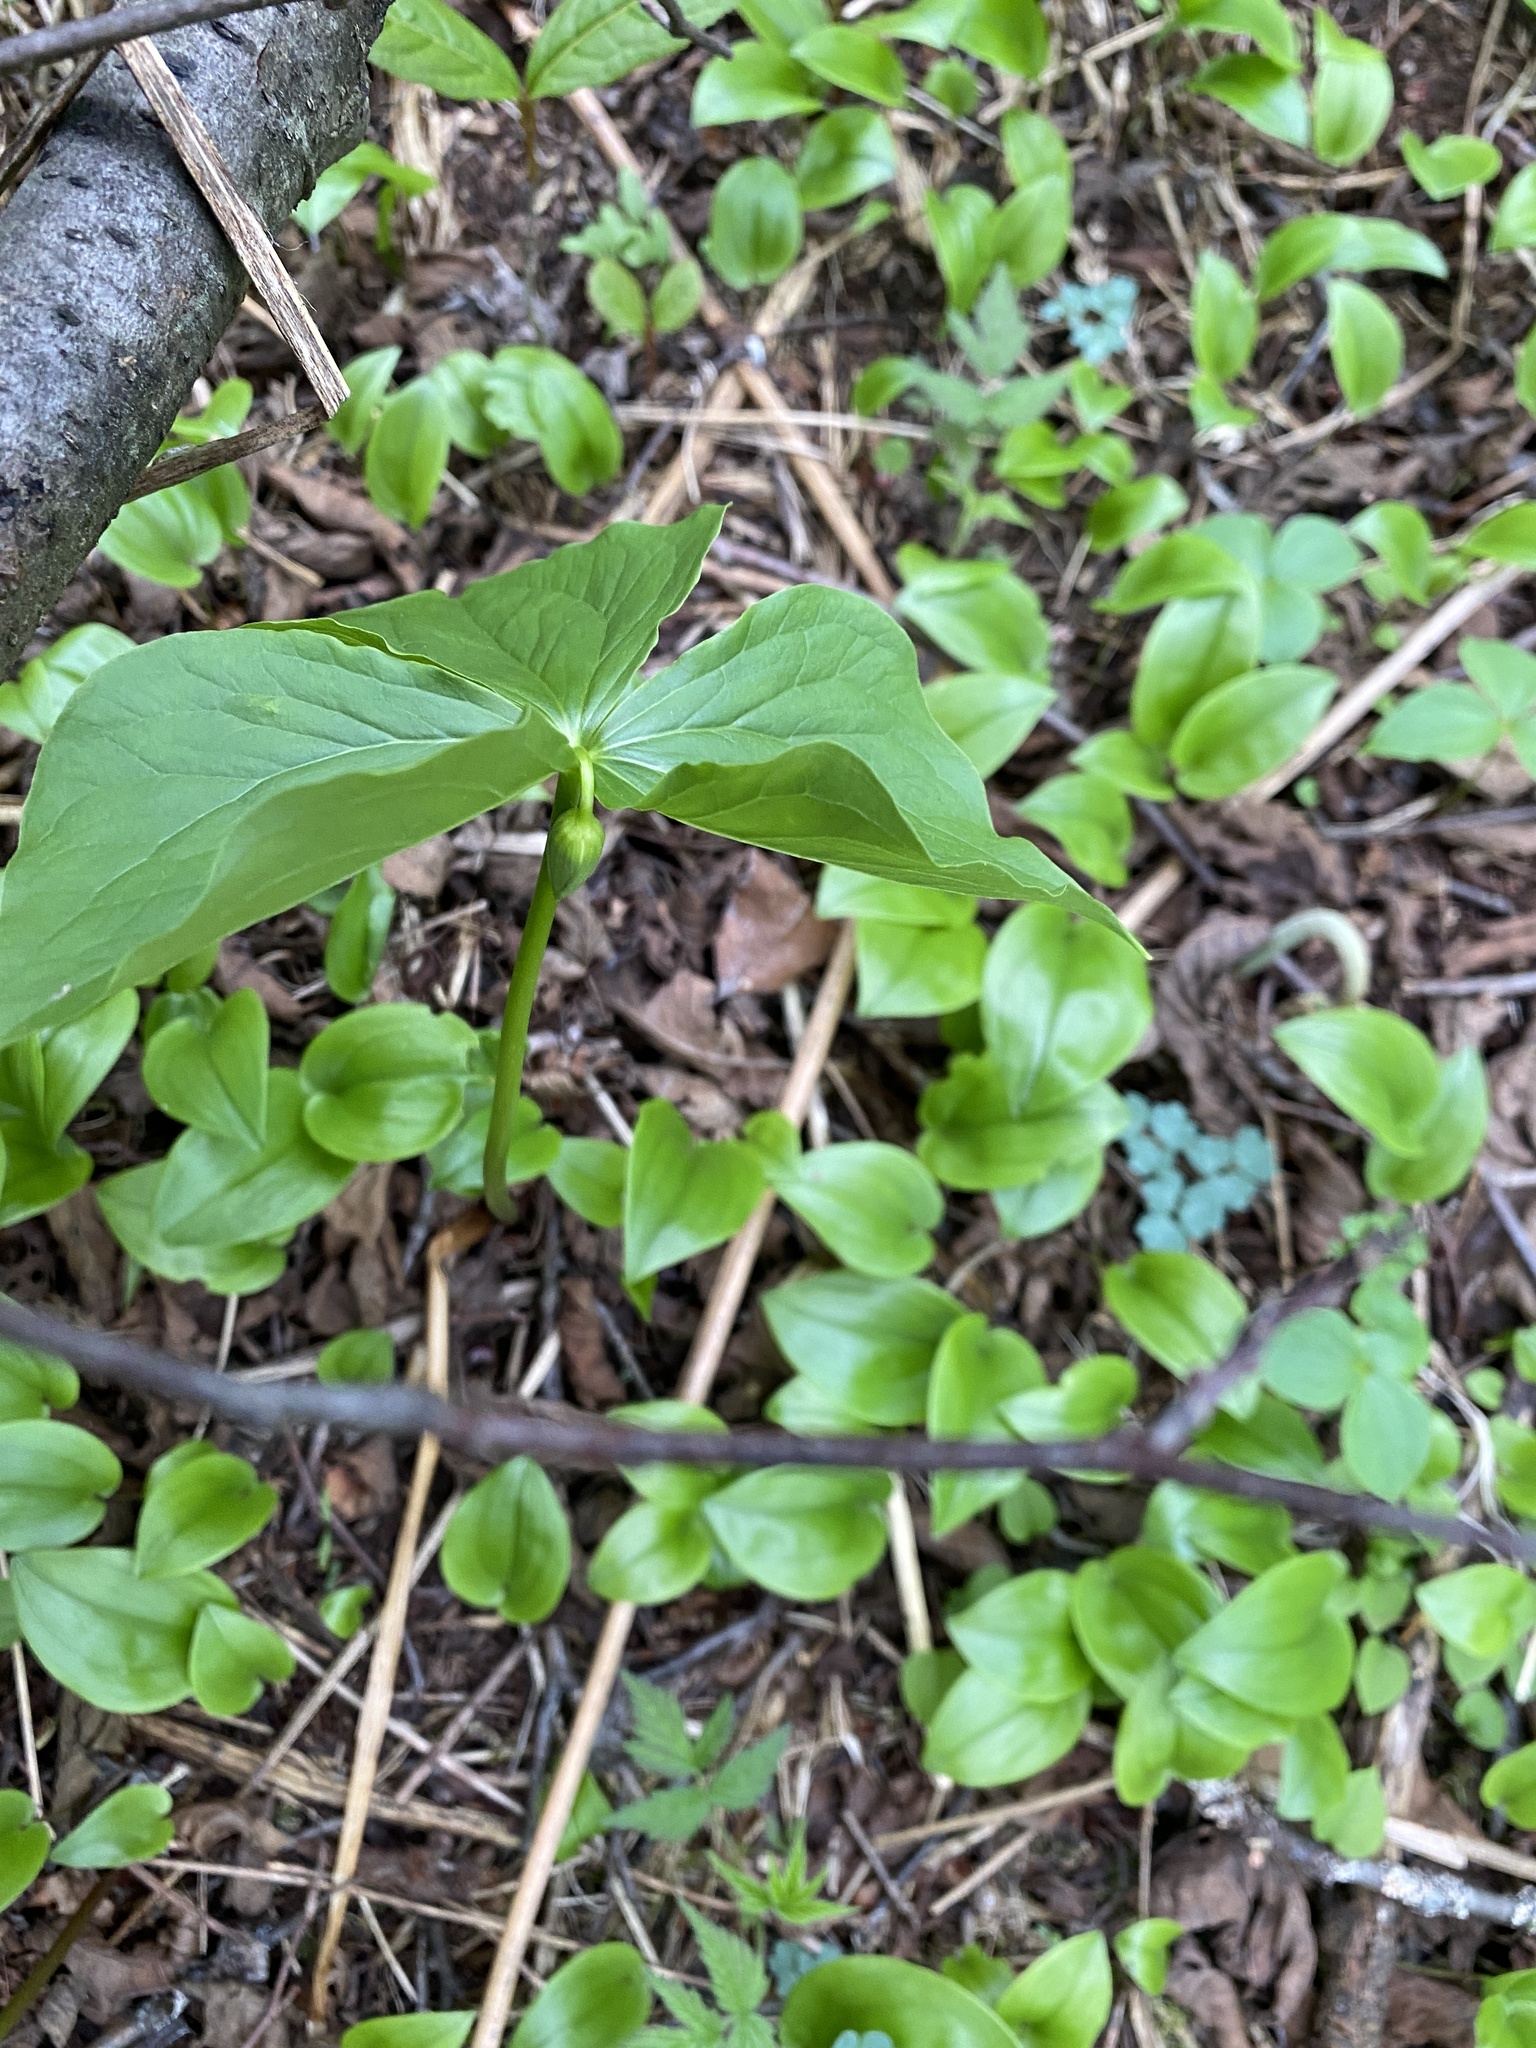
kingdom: Plantae
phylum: Tracheophyta
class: Liliopsida
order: Liliales
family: Melanthiaceae
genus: Trillium
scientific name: Trillium cernuum
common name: Nodding trillium
